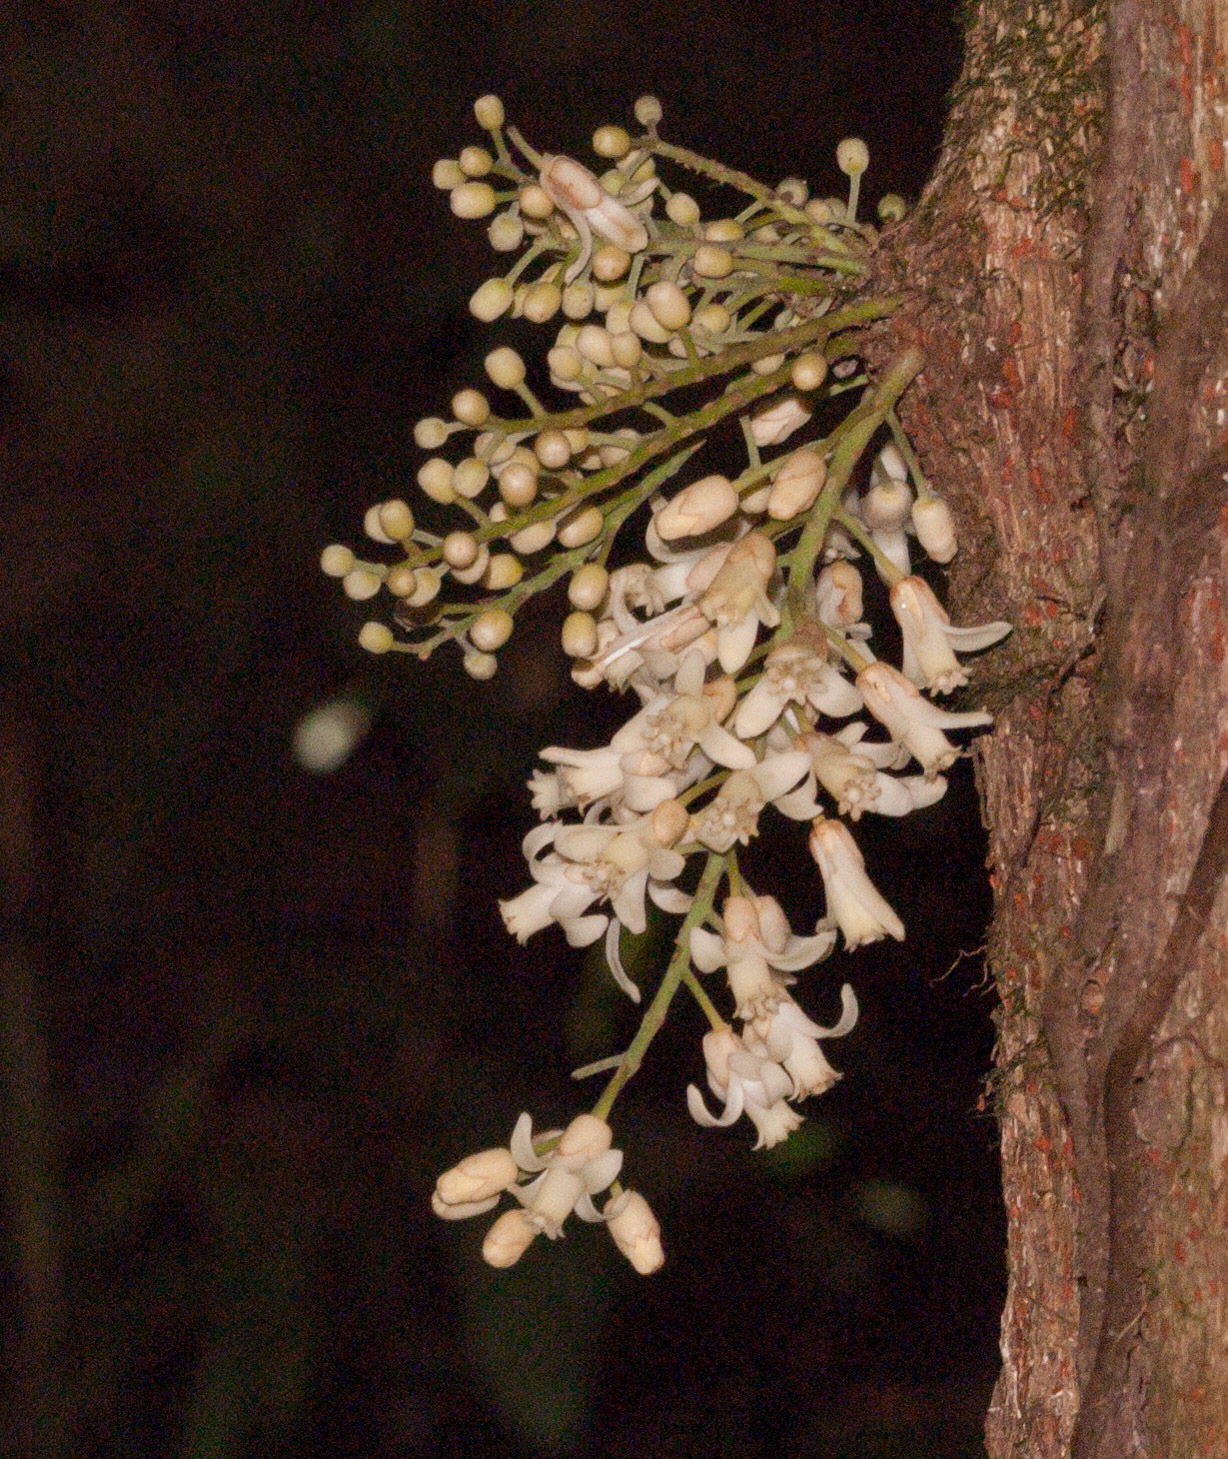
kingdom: Plantae
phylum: Tracheophyta
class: Magnoliopsida
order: Sapindales
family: Meliaceae
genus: Epicharis
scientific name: Epicharis parasitica
